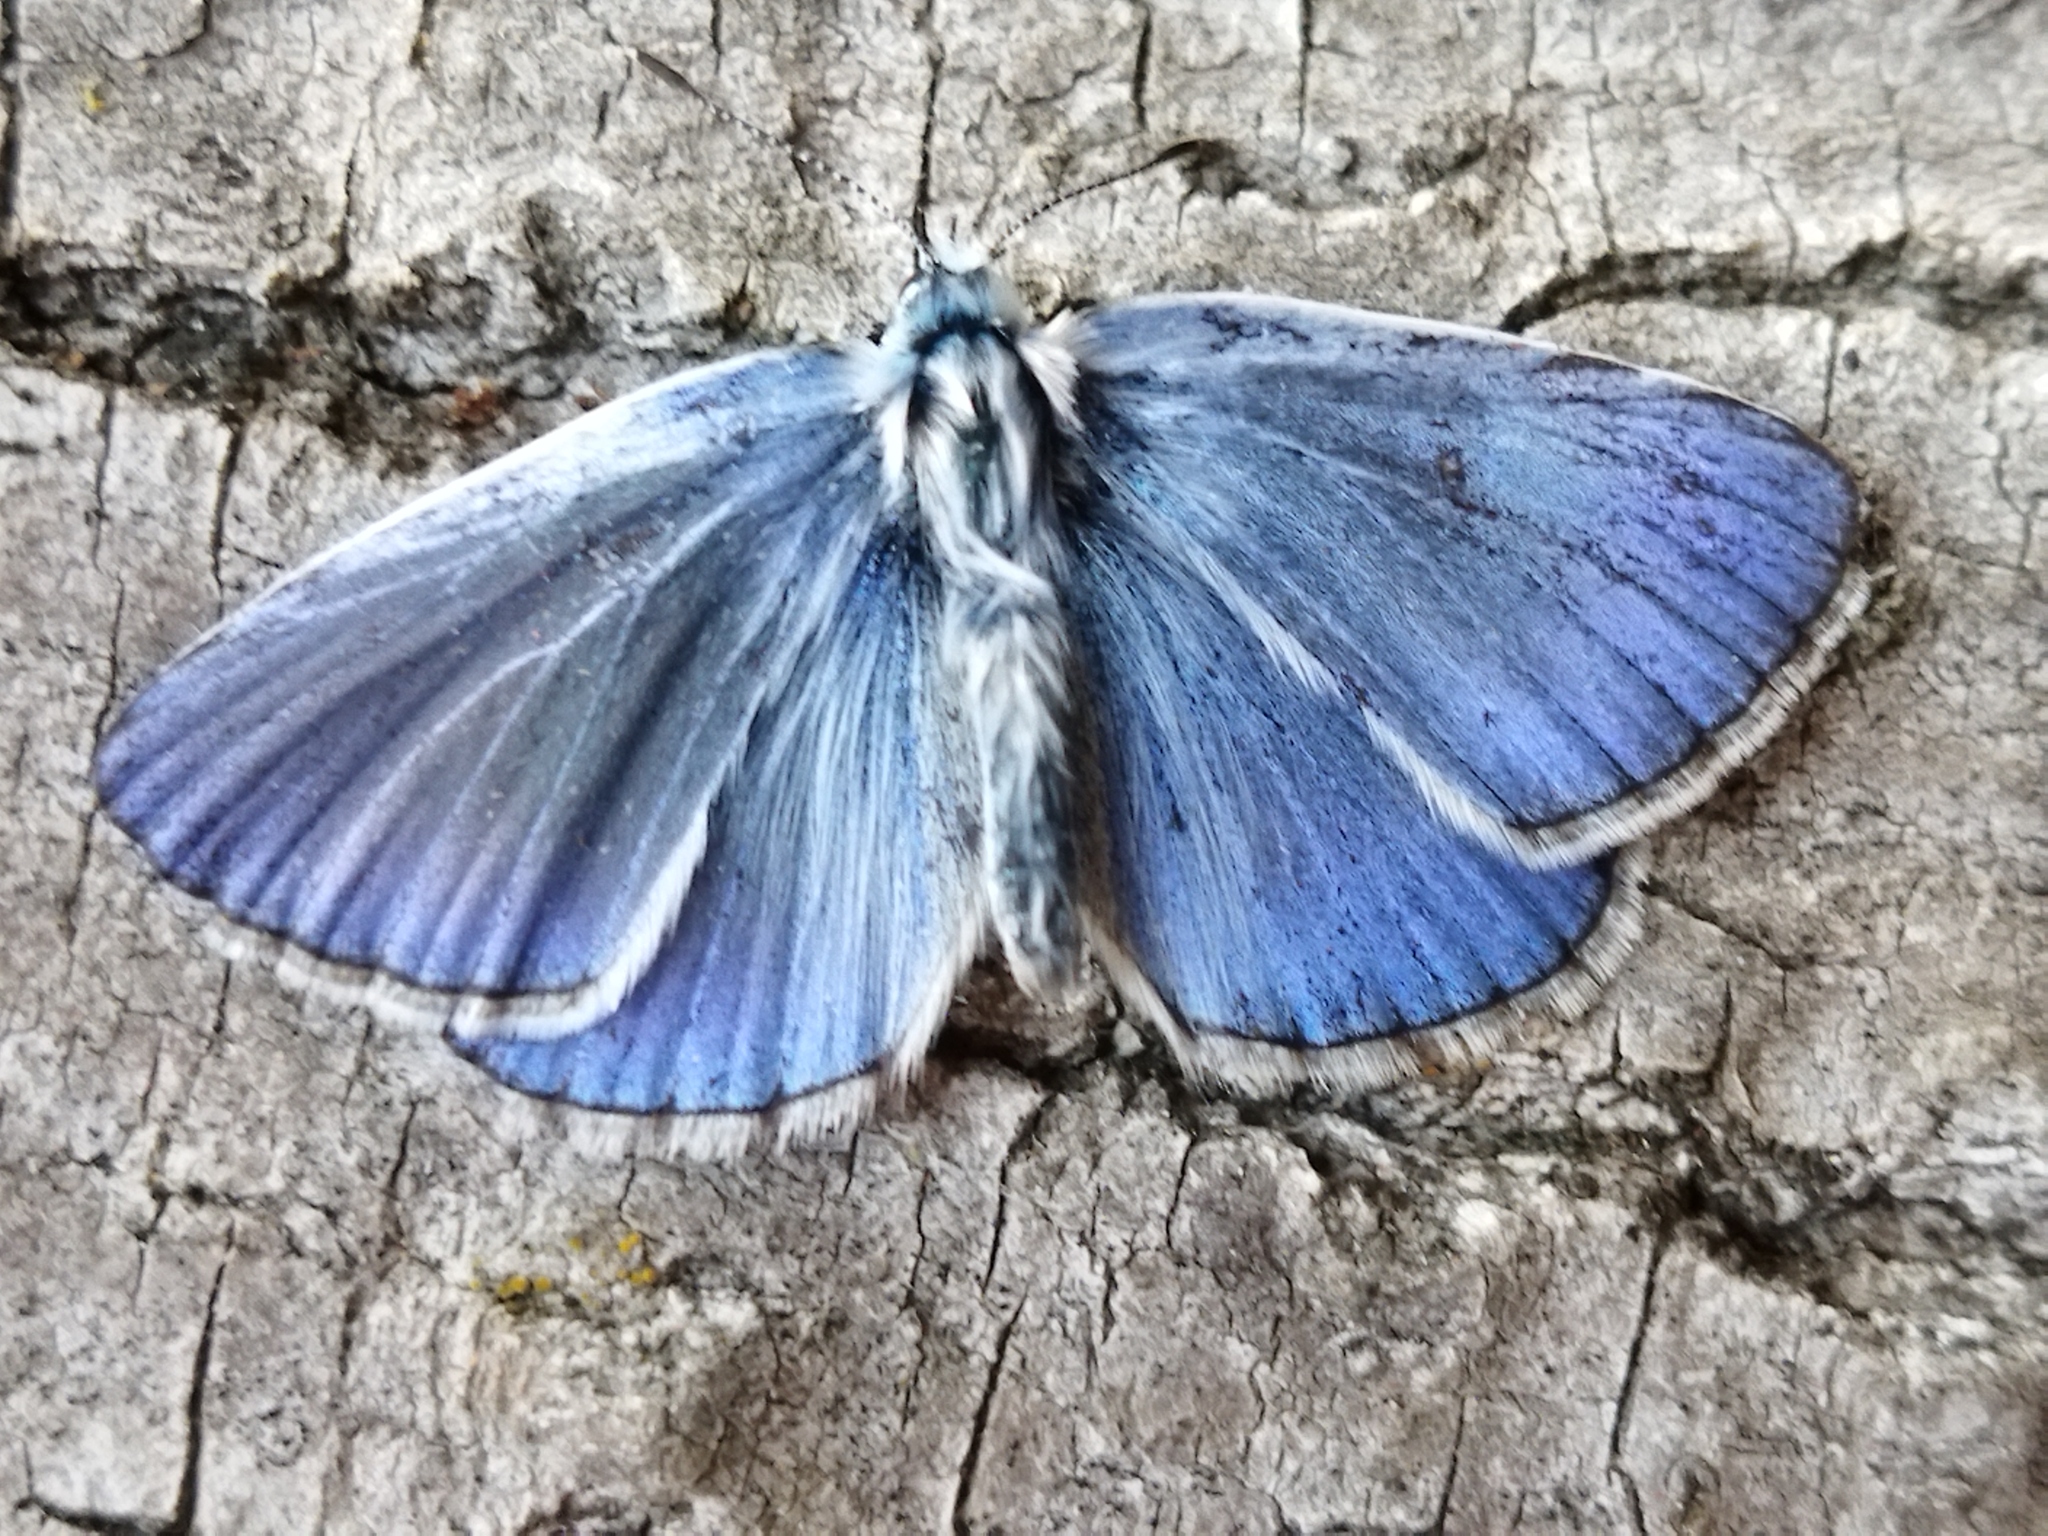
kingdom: Animalia
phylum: Arthropoda
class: Insecta
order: Lepidoptera
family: Lycaenidae
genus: Polyommatus
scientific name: Polyommatus icarus
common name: Common blue
